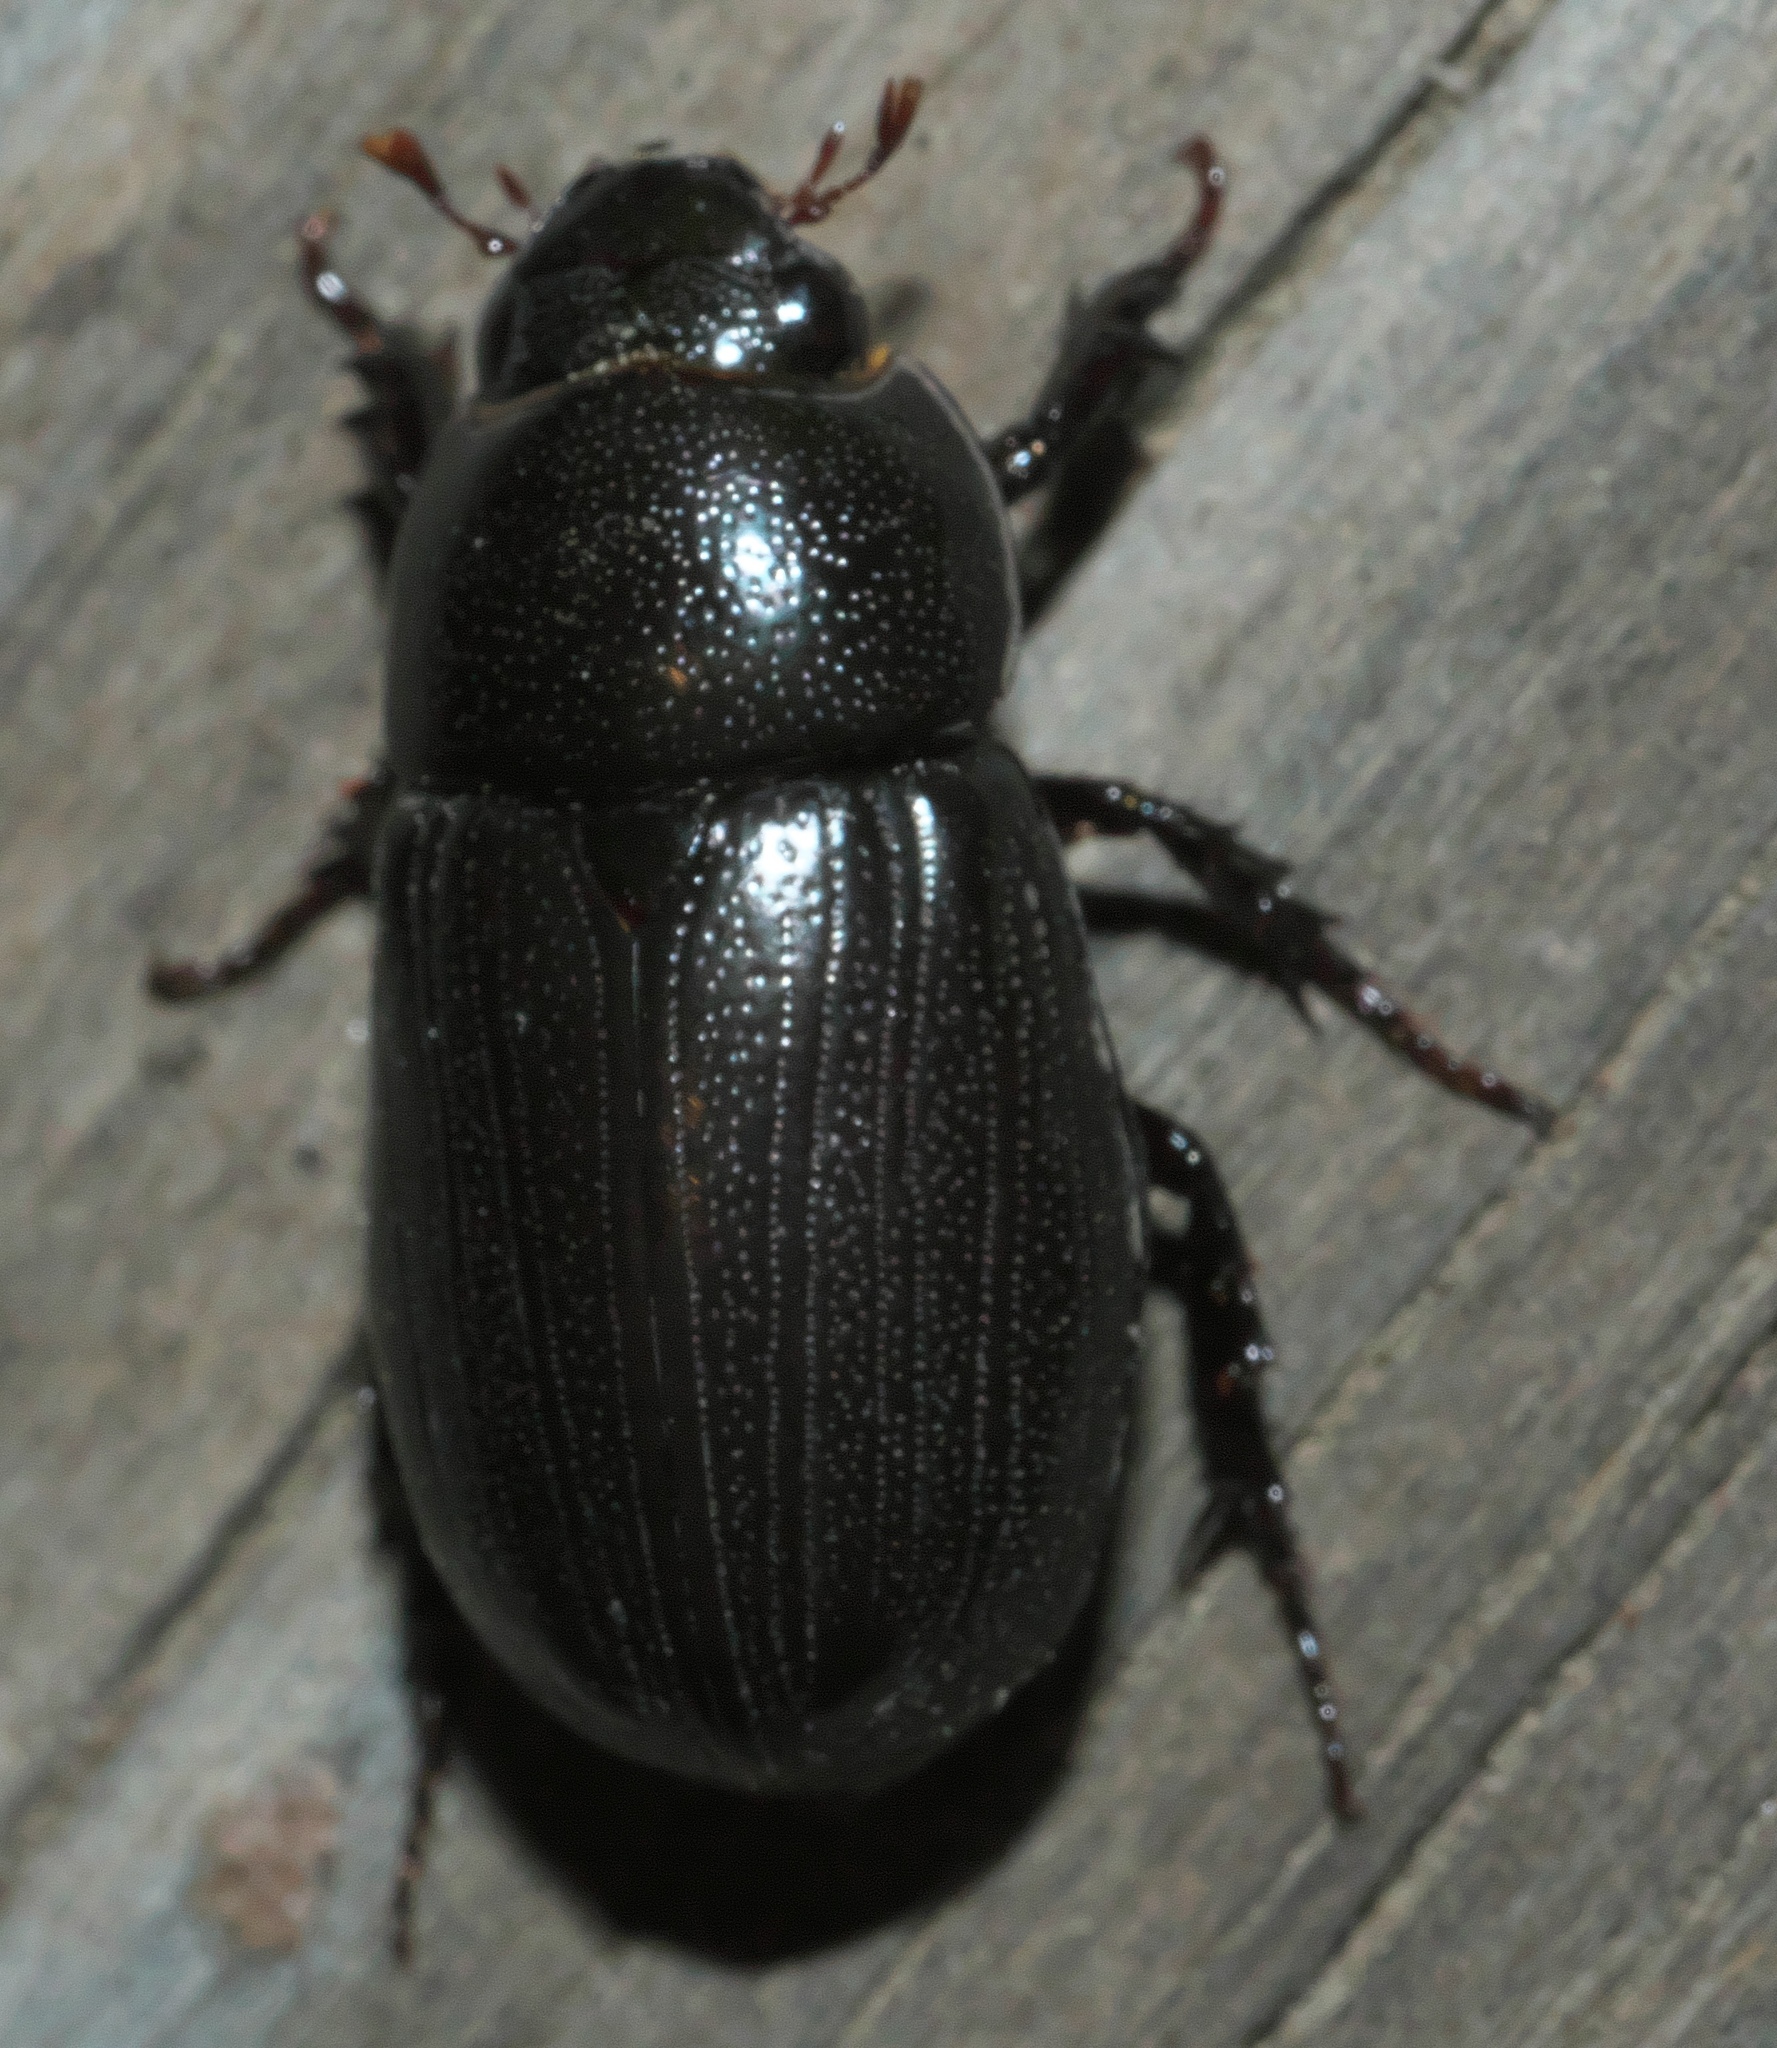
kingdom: Animalia
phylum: Arthropoda
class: Insecta
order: Coleoptera
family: Scarabaeidae
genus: Dyscinetus
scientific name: Dyscinetus morator
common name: Rice beetle
